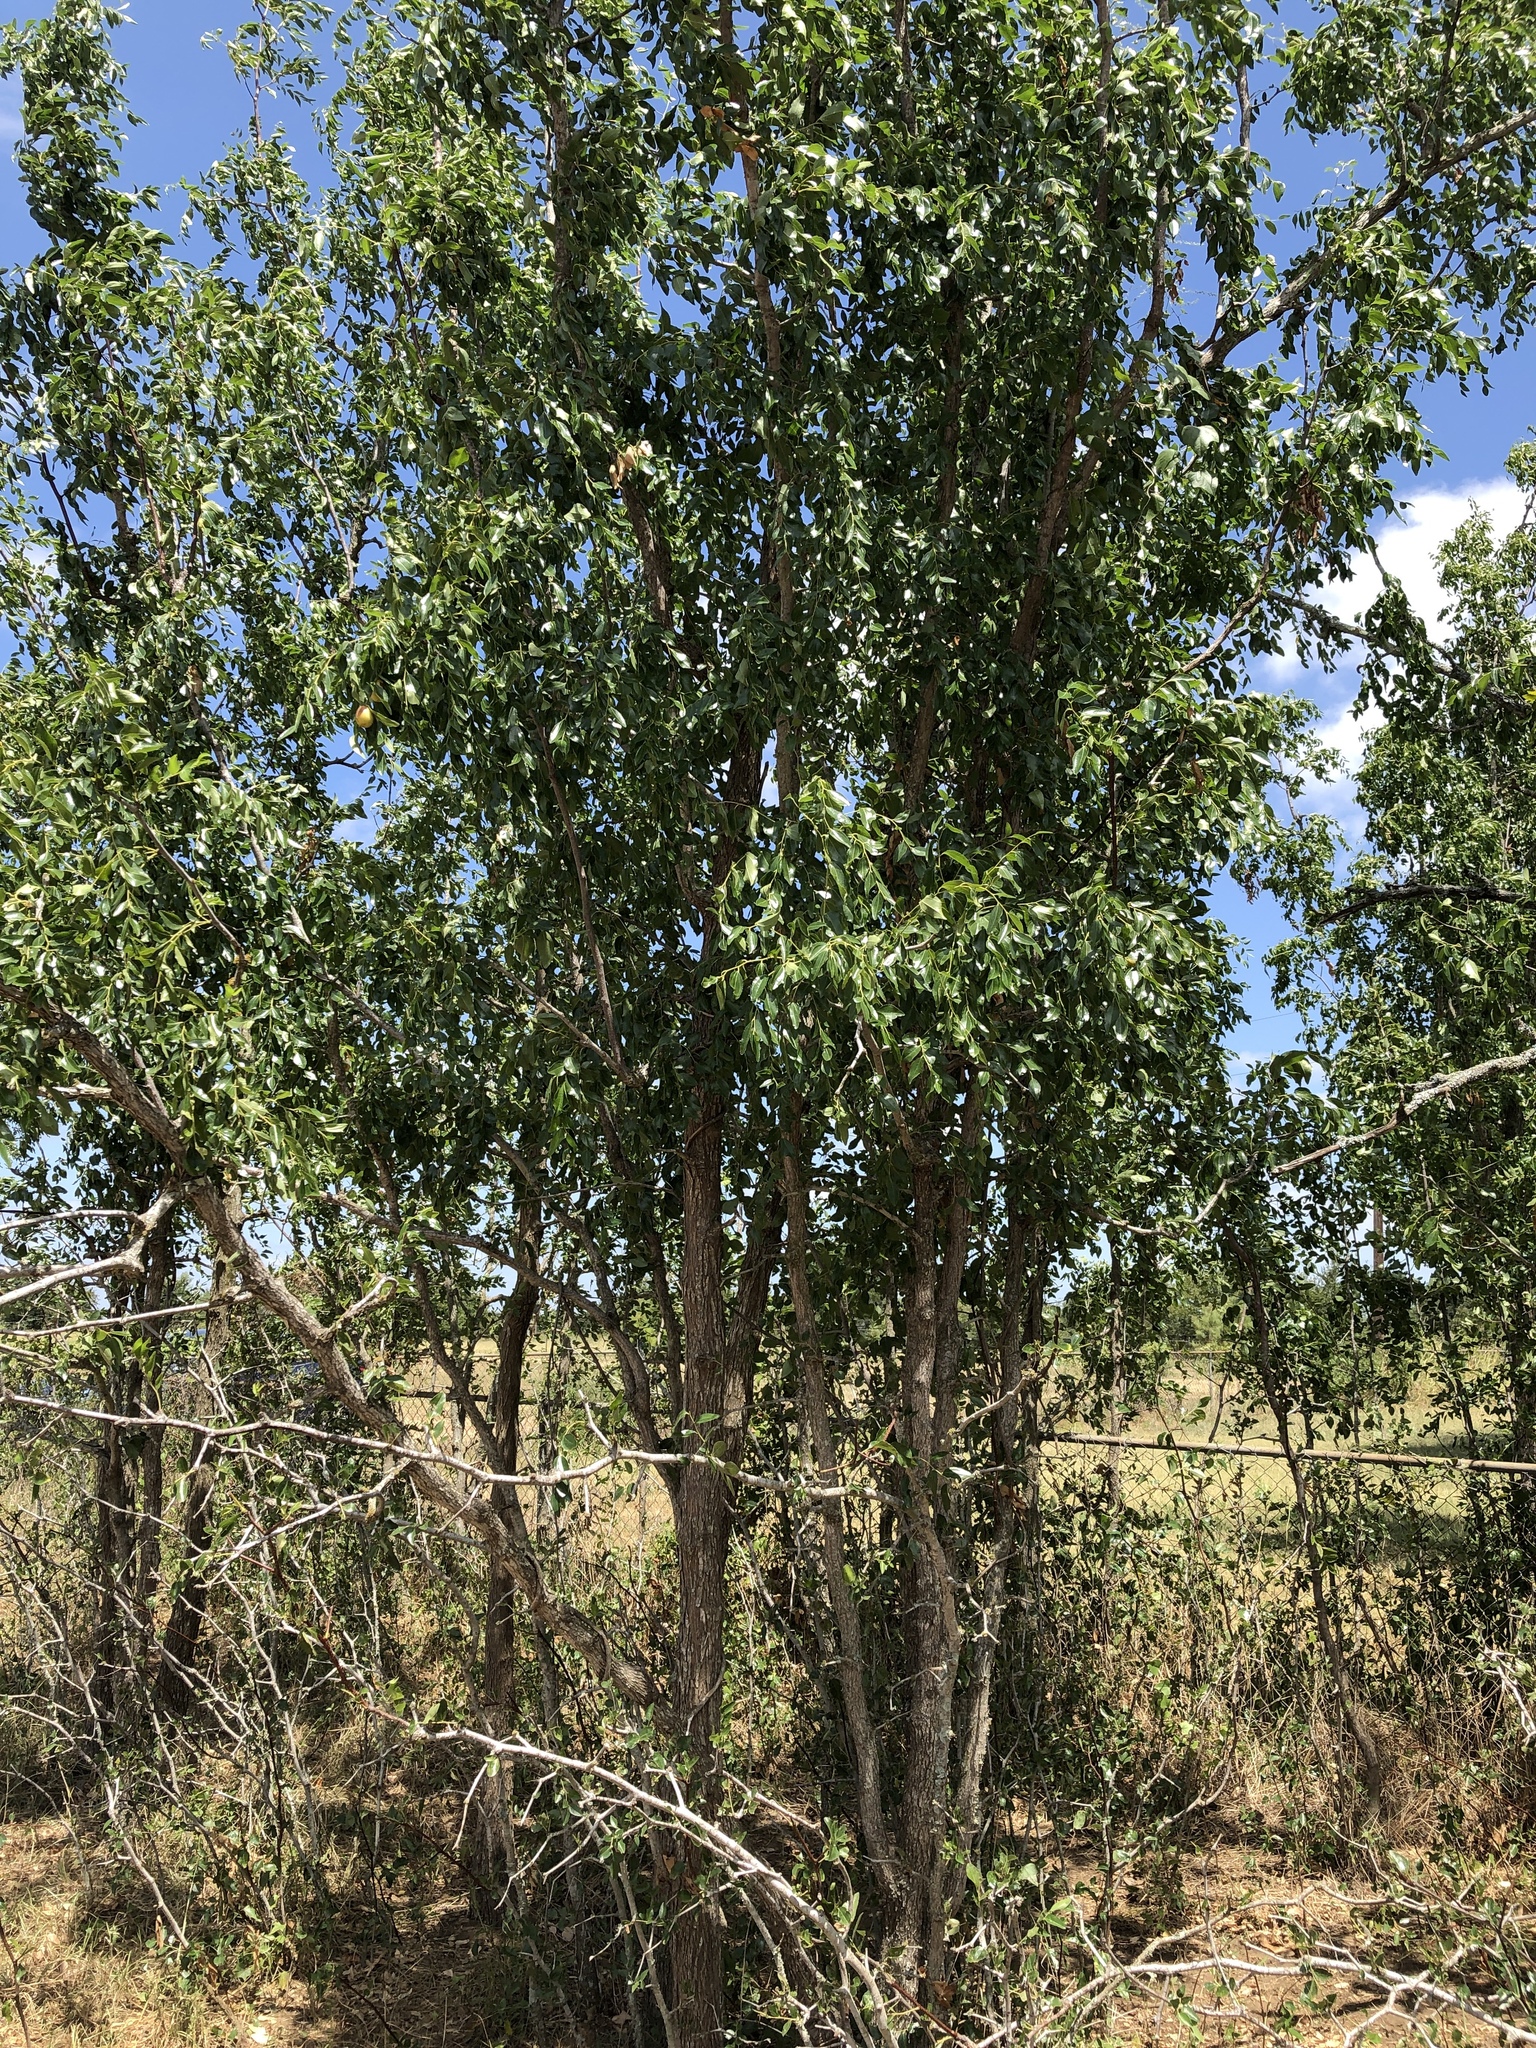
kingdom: Plantae
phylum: Tracheophyta
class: Magnoliopsida
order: Rosales
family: Rhamnaceae
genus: Ziziphus
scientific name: Ziziphus jujuba
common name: Jujube red date
